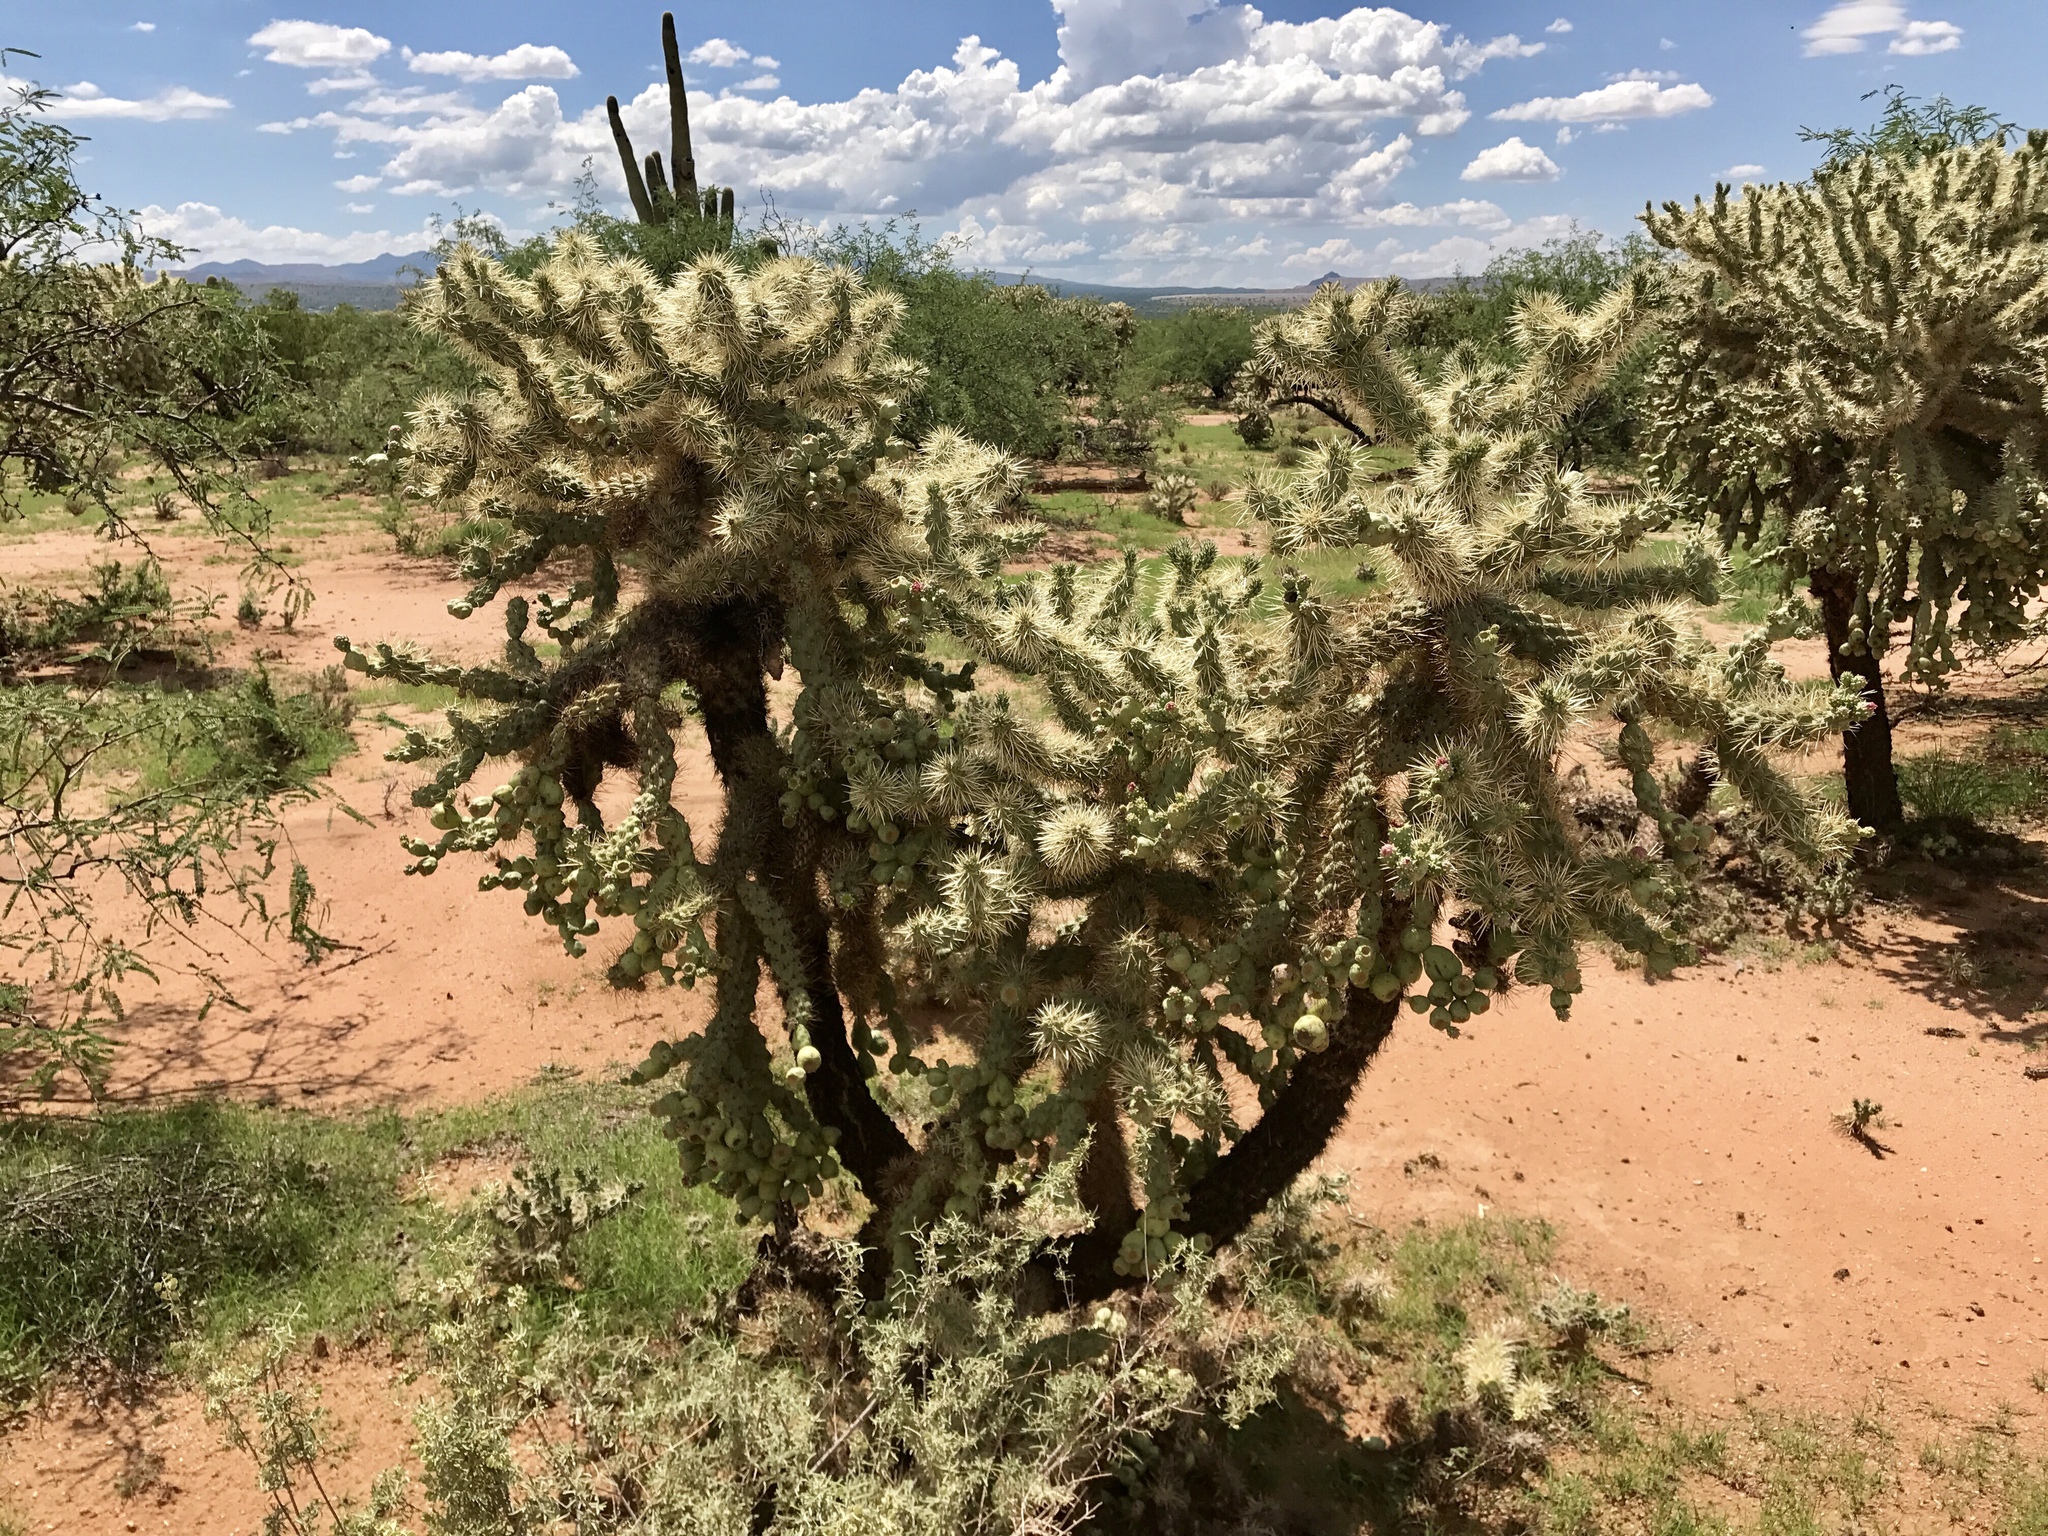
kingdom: Plantae
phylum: Tracheophyta
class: Magnoliopsida
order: Caryophyllales
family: Cactaceae
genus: Cylindropuntia
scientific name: Cylindropuntia fulgida
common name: Jumping cholla
